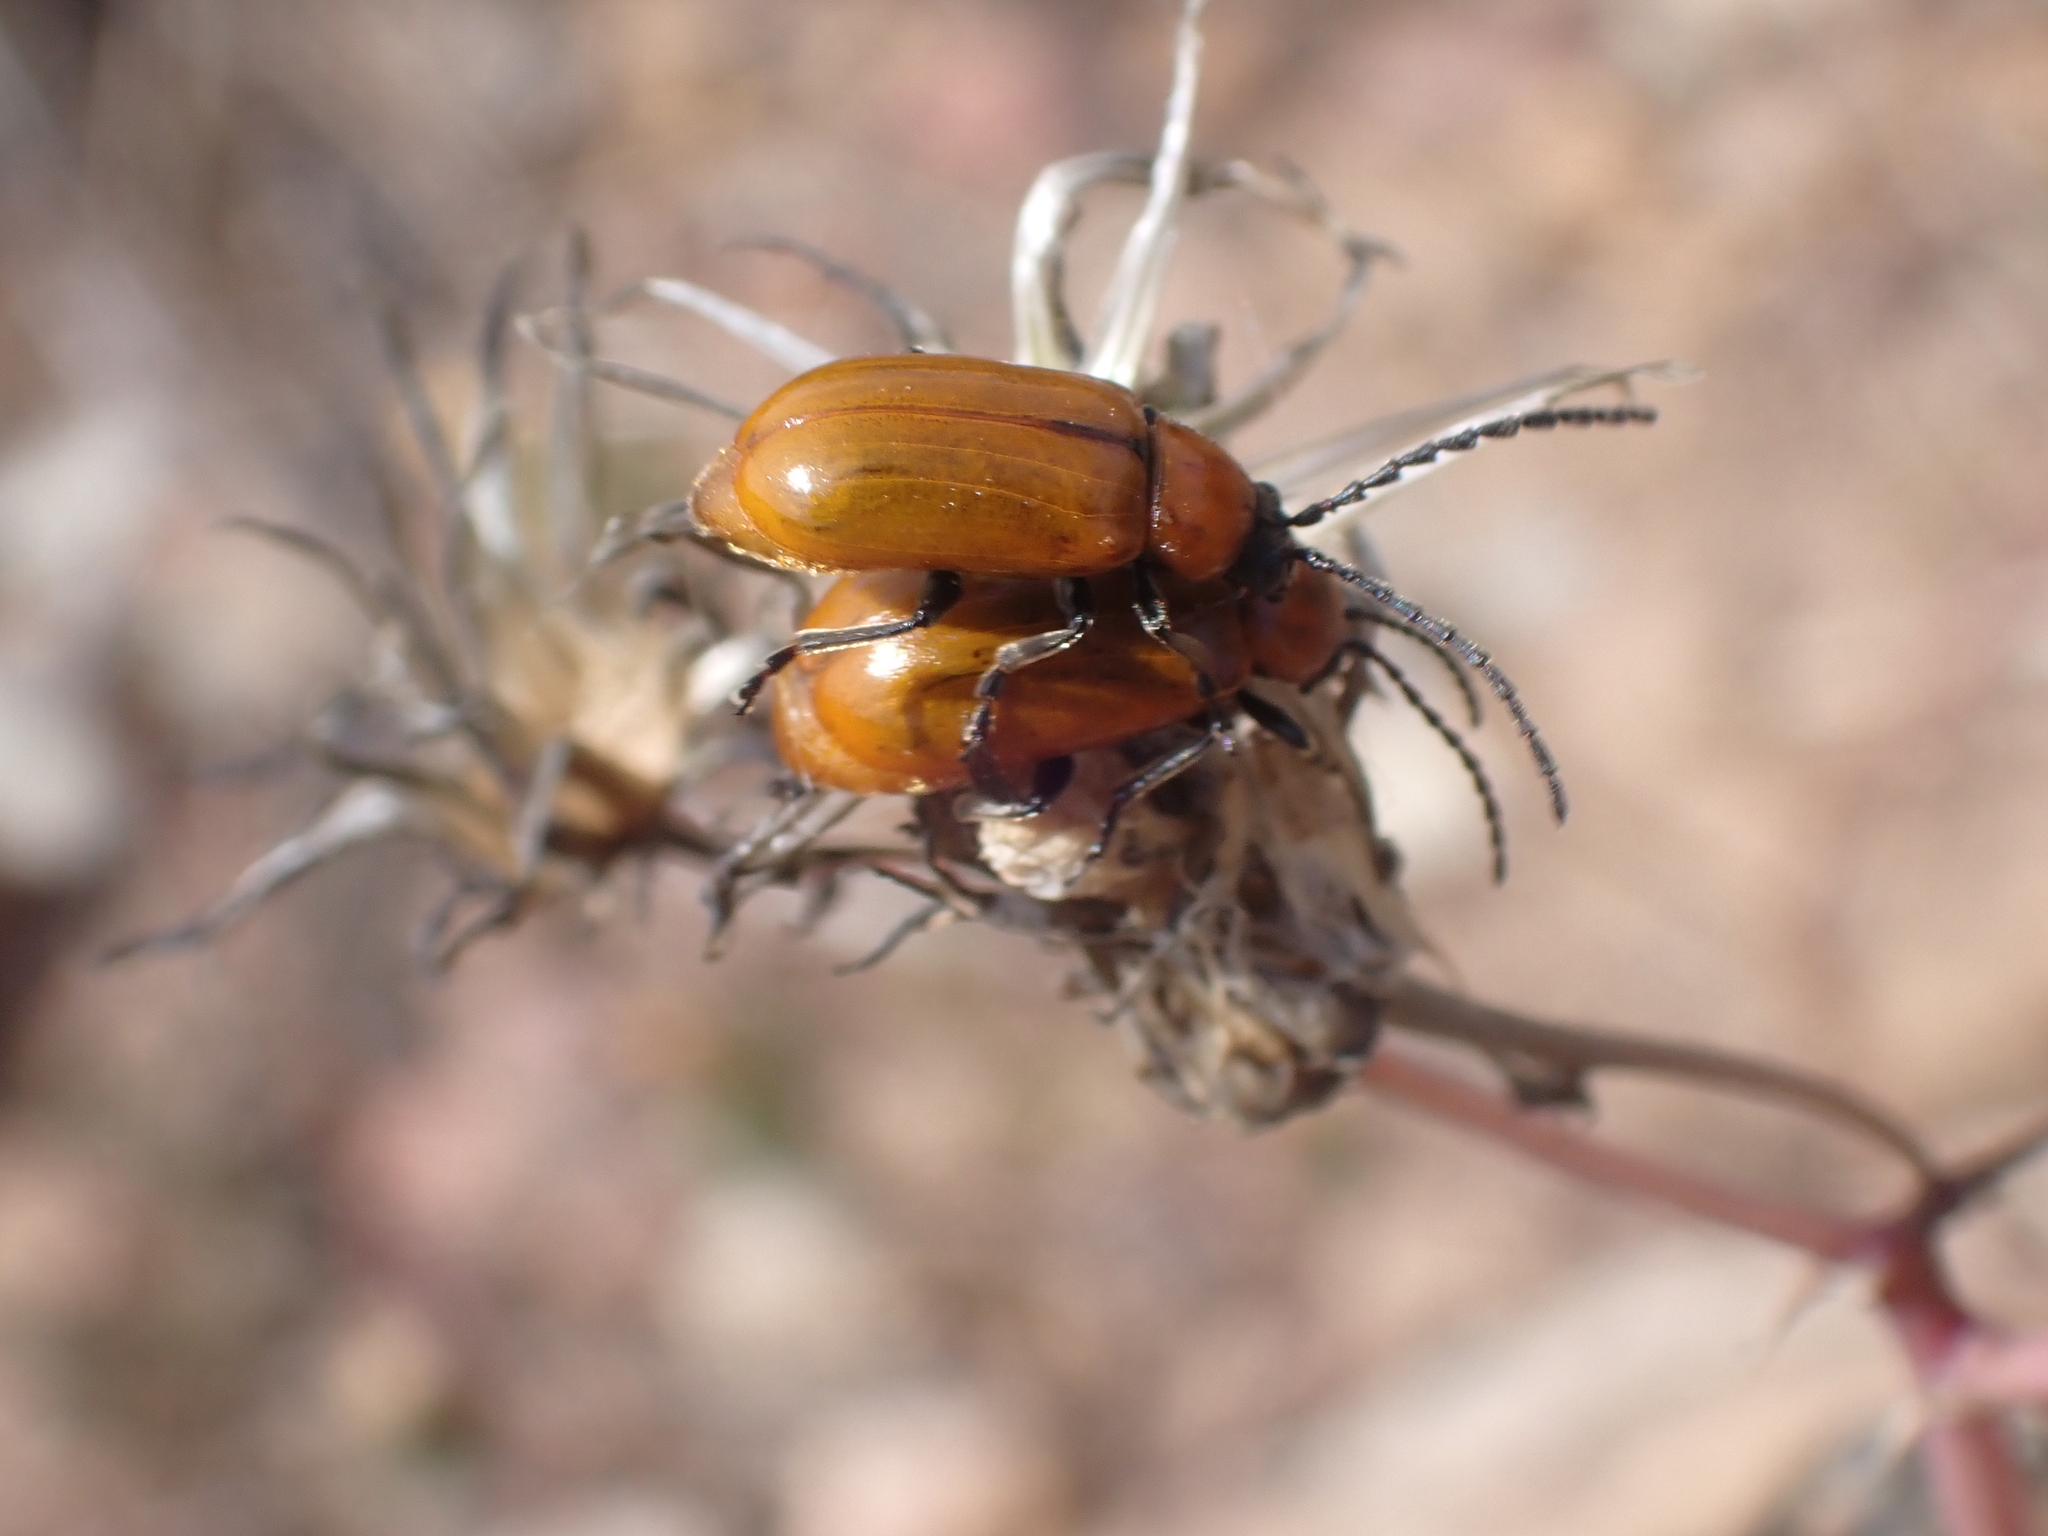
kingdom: Animalia
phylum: Arthropoda
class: Insecta
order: Coleoptera
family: Chrysomelidae
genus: Exosoma
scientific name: Exosoma lusitanicum
